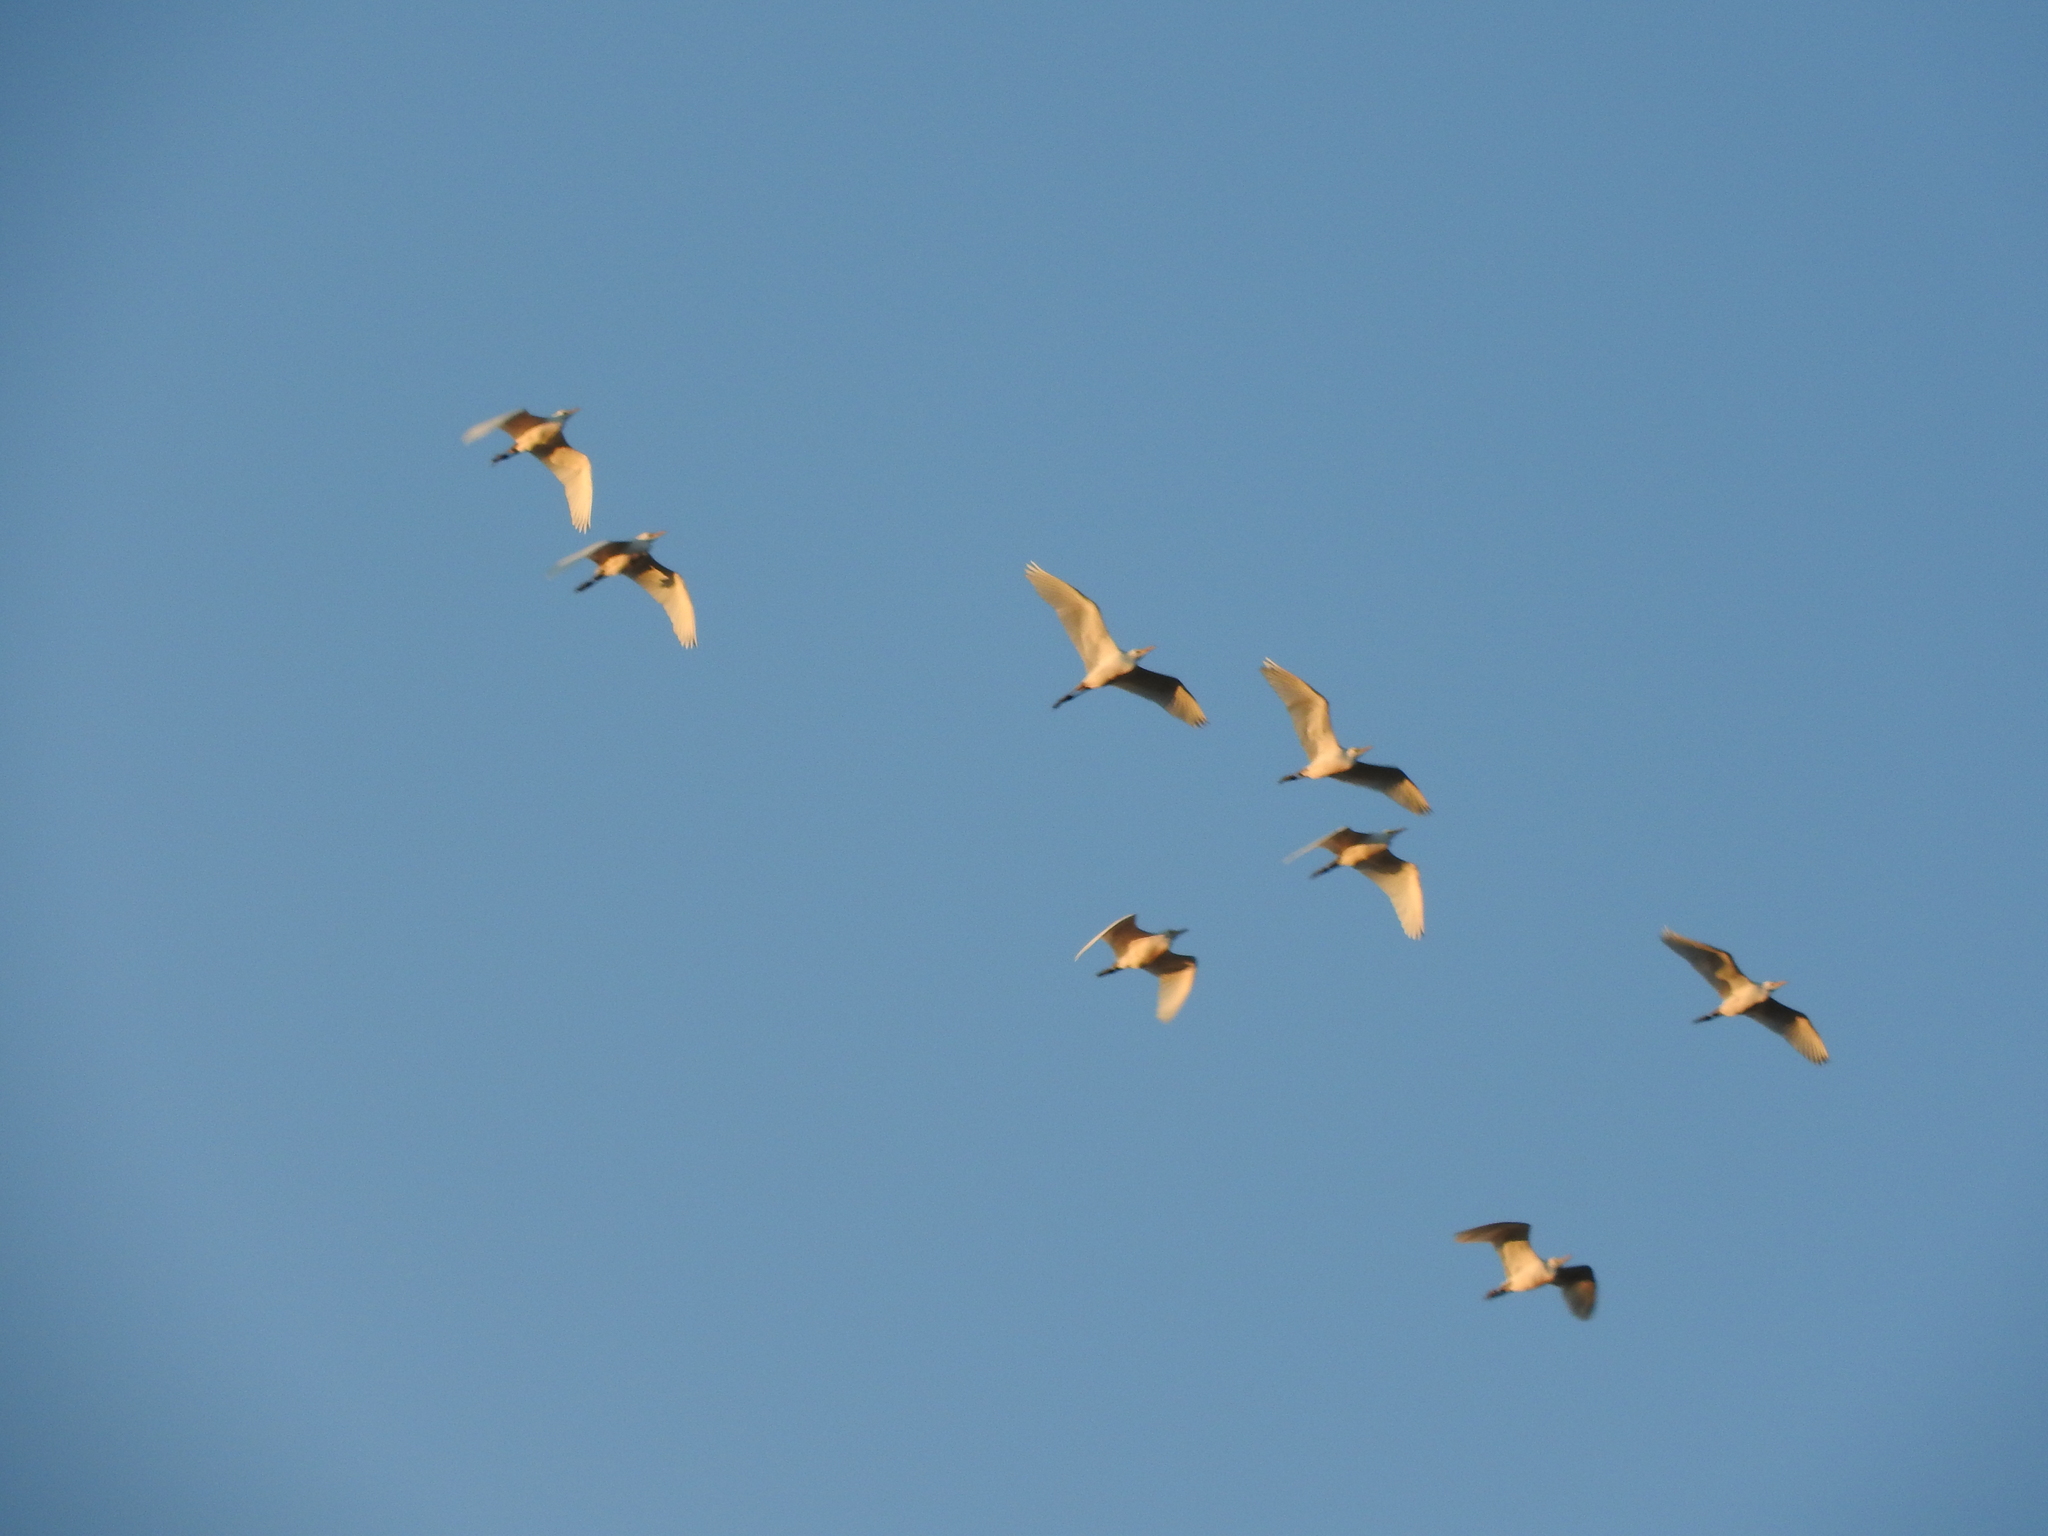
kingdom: Animalia
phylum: Chordata
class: Aves
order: Pelecaniformes
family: Ardeidae
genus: Bubulcus
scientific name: Bubulcus ibis
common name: Cattle egret
